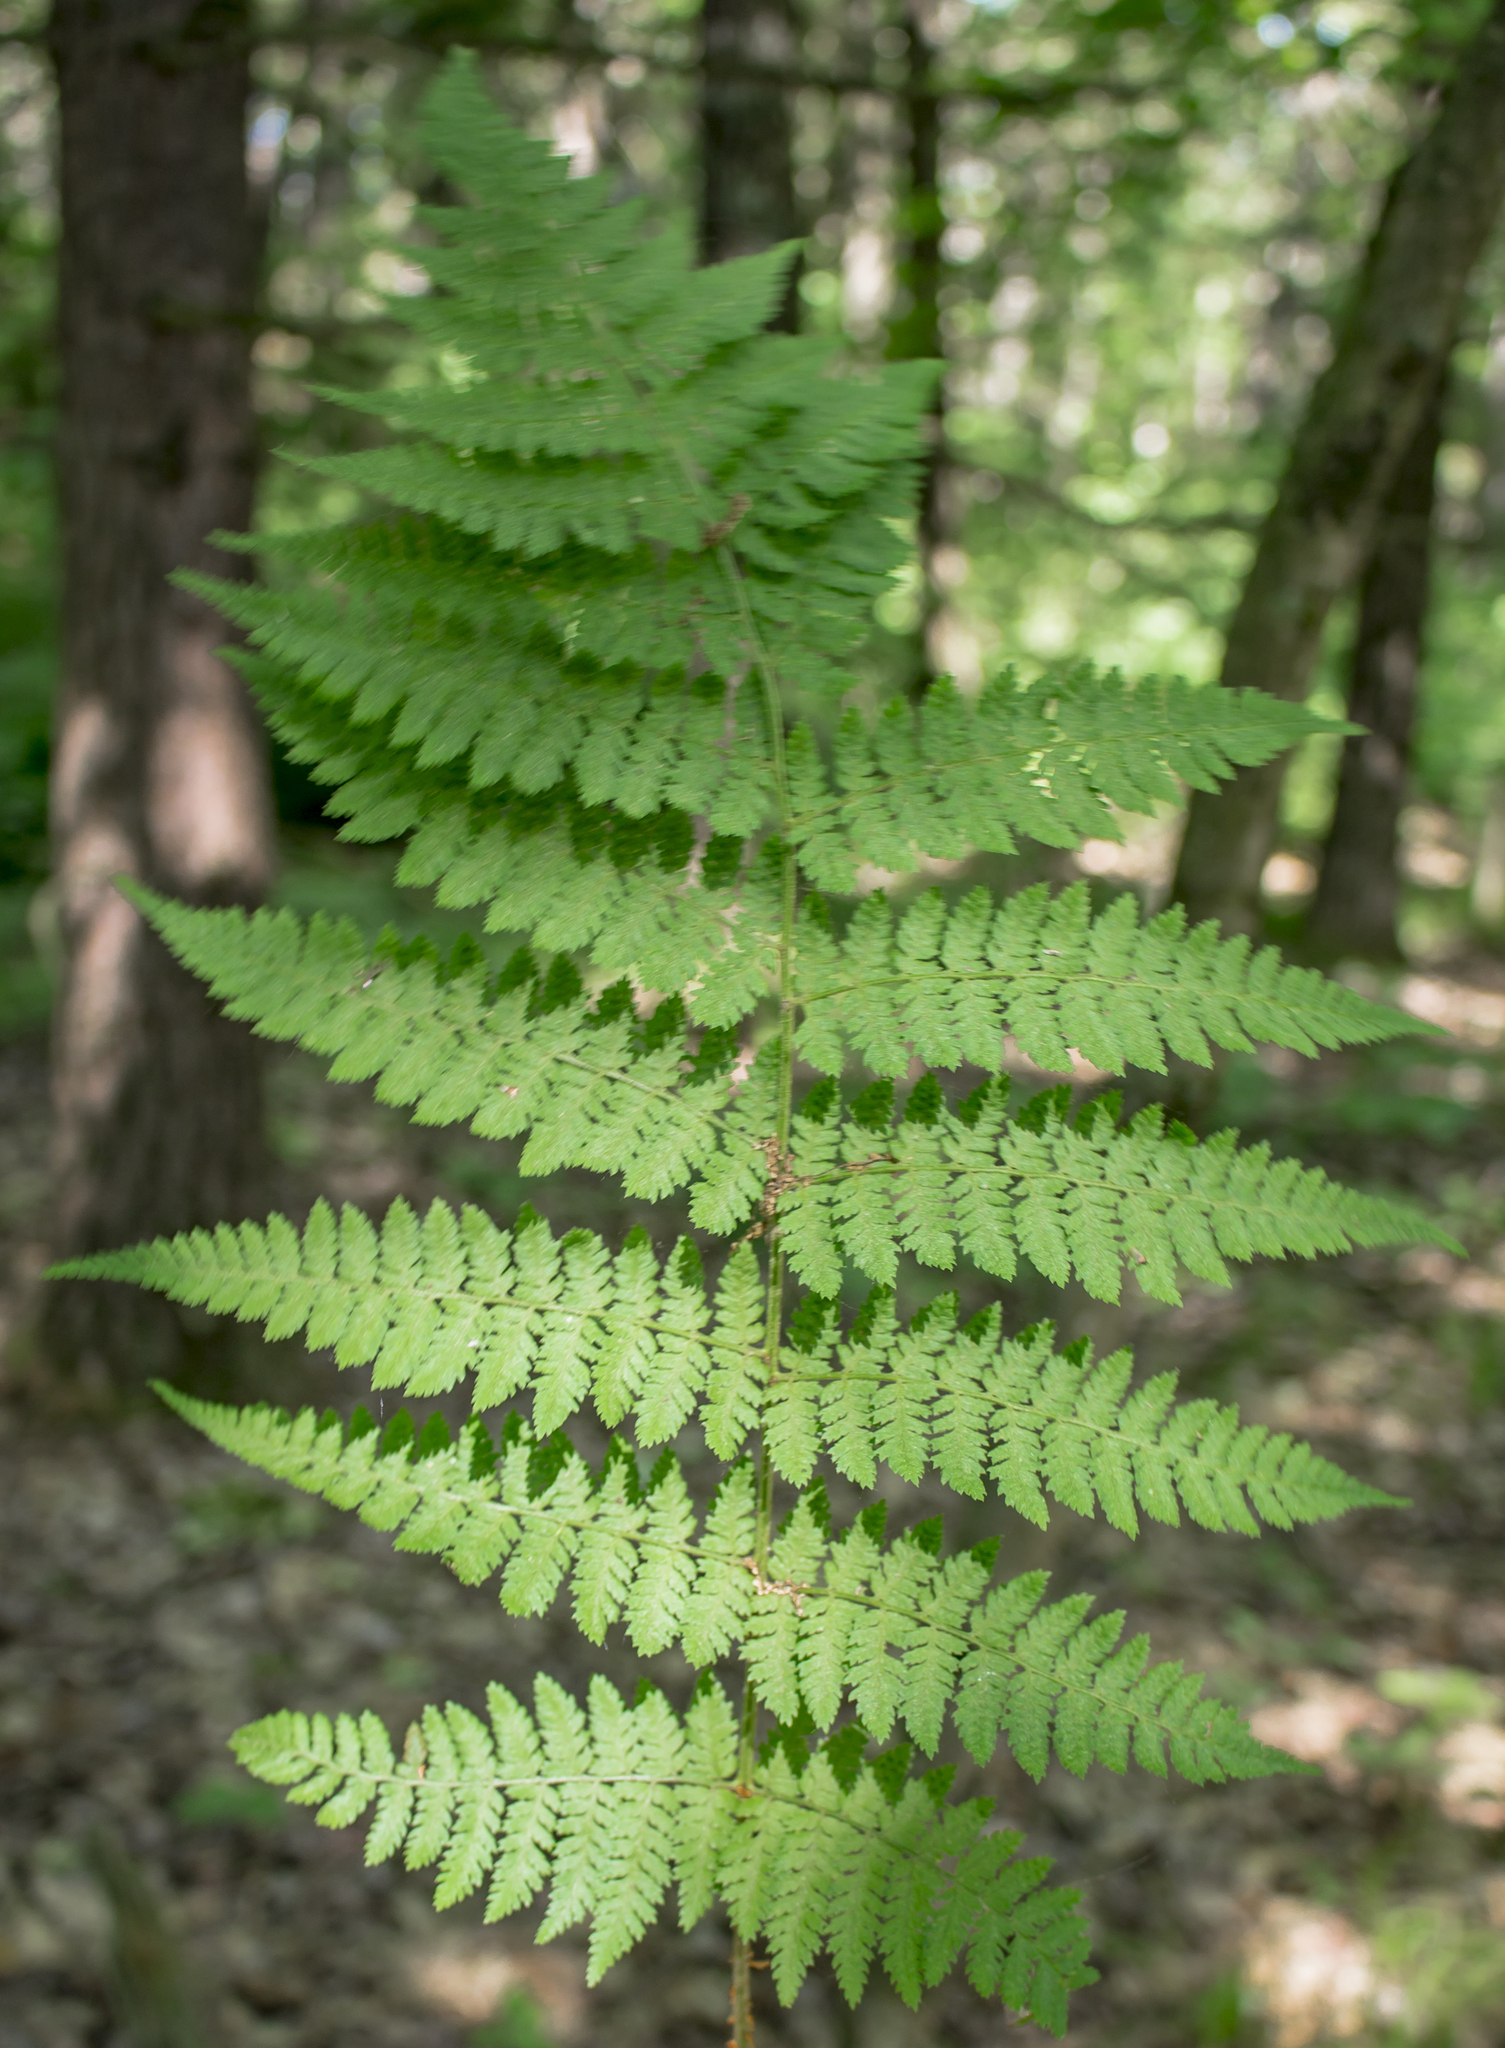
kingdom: Plantae
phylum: Tracheophyta
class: Polypodiopsida
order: Polypodiales
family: Dryopteridaceae
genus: Dryopteris
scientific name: Dryopteris intermedia
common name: Evergreen wood fern
